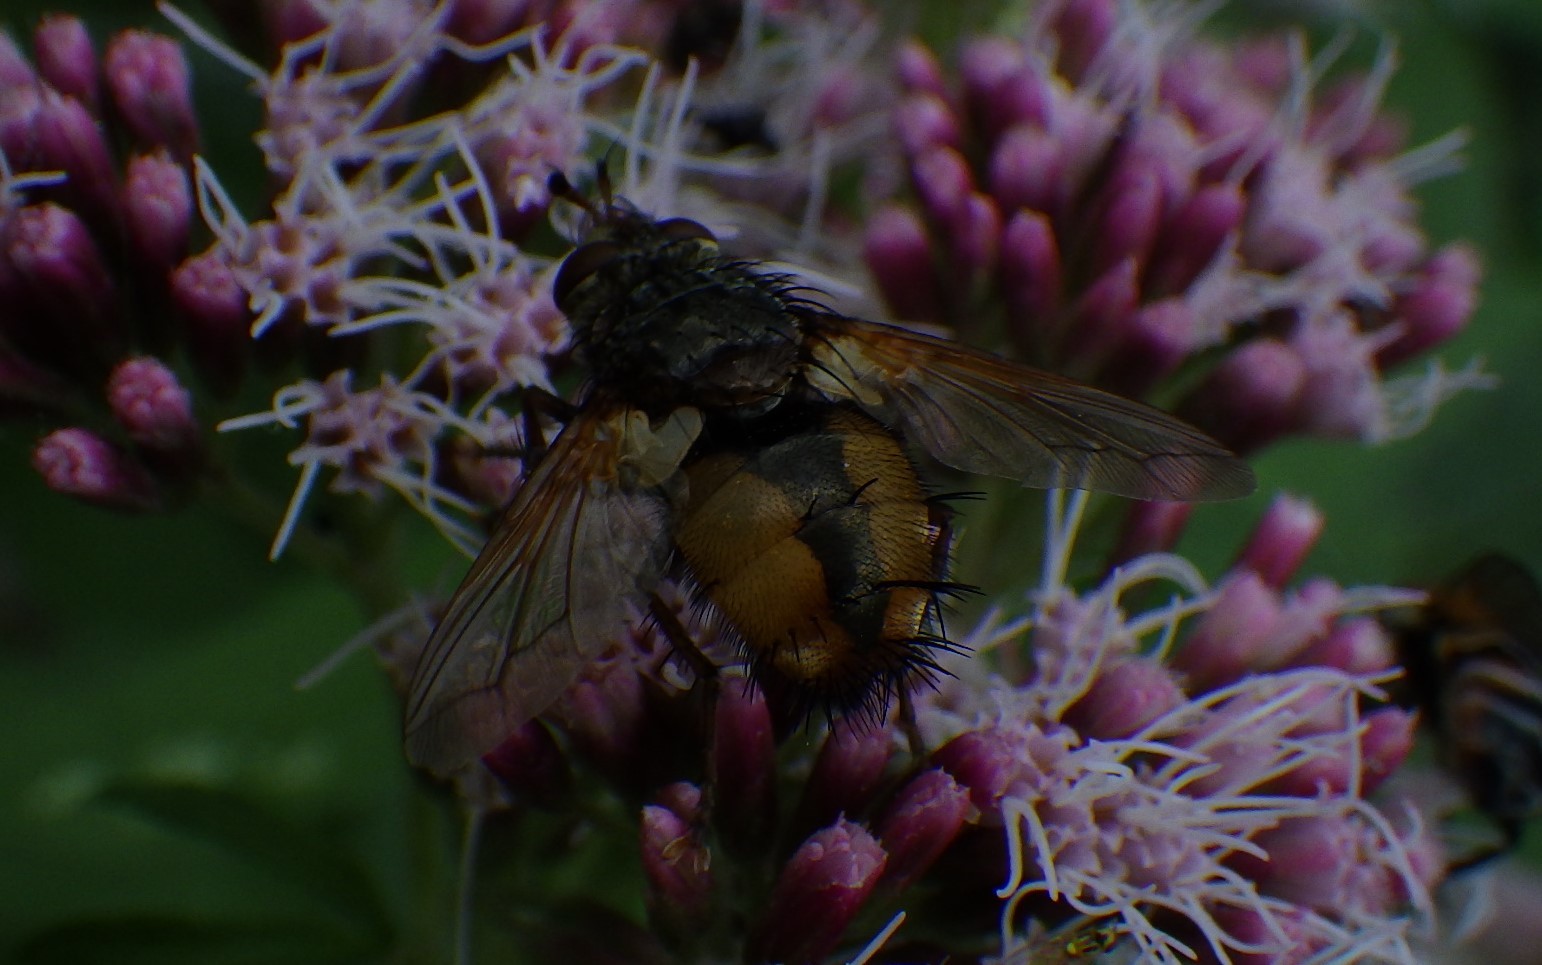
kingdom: Animalia
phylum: Arthropoda
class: Insecta
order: Diptera
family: Tachinidae
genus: Tachina
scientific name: Tachina fera
